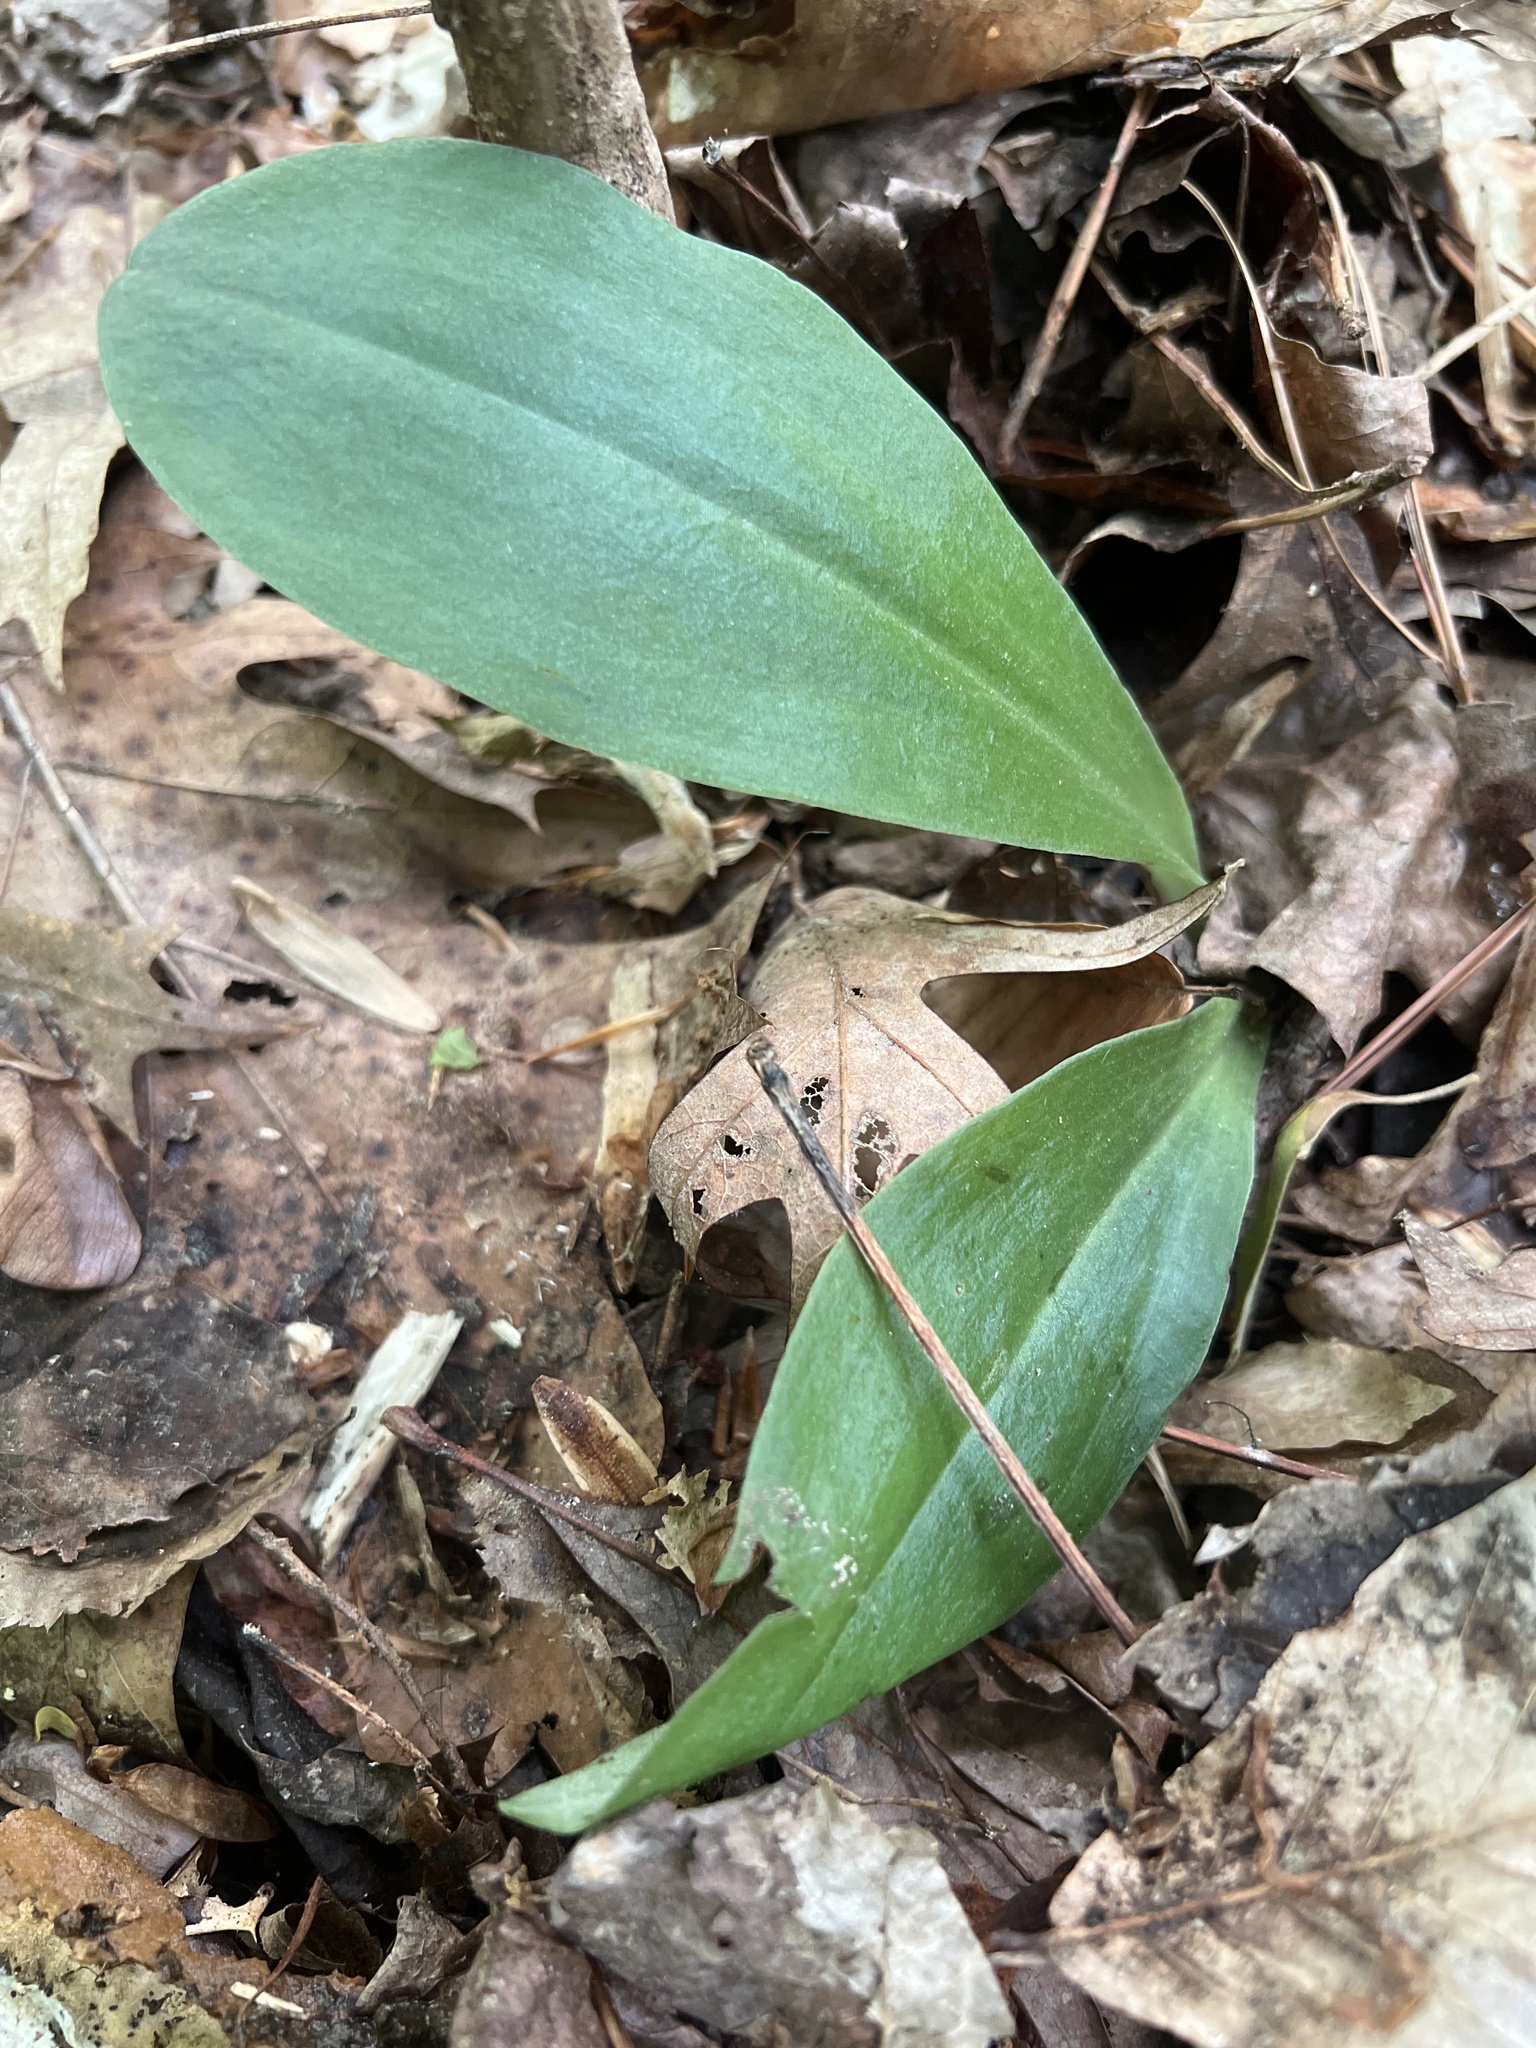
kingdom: Plantae
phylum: Tracheophyta
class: Liliopsida
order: Asparagales
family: Orchidaceae
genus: Galearis
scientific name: Galearis spectabilis
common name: Purple-hooded orchis
